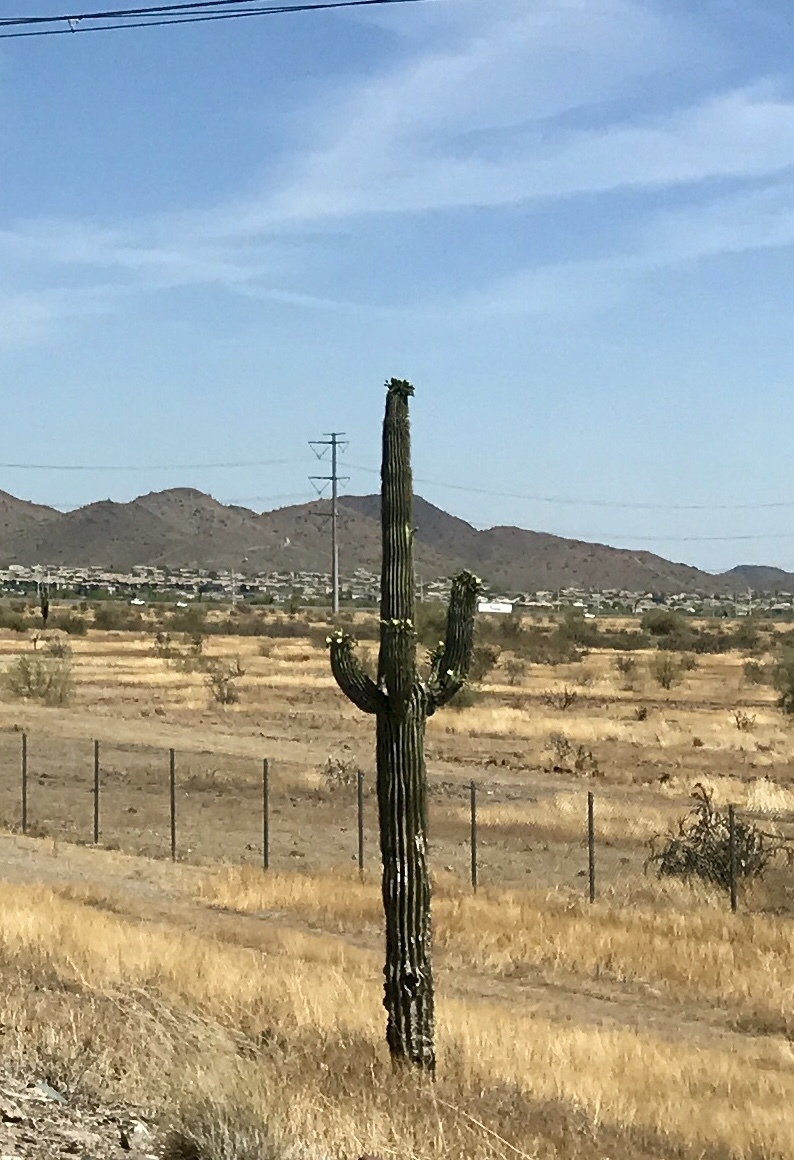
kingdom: Plantae
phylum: Tracheophyta
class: Magnoliopsida
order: Caryophyllales
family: Cactaceae
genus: Carnegiea
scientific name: Carnegiea gigantea
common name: Saguaro
